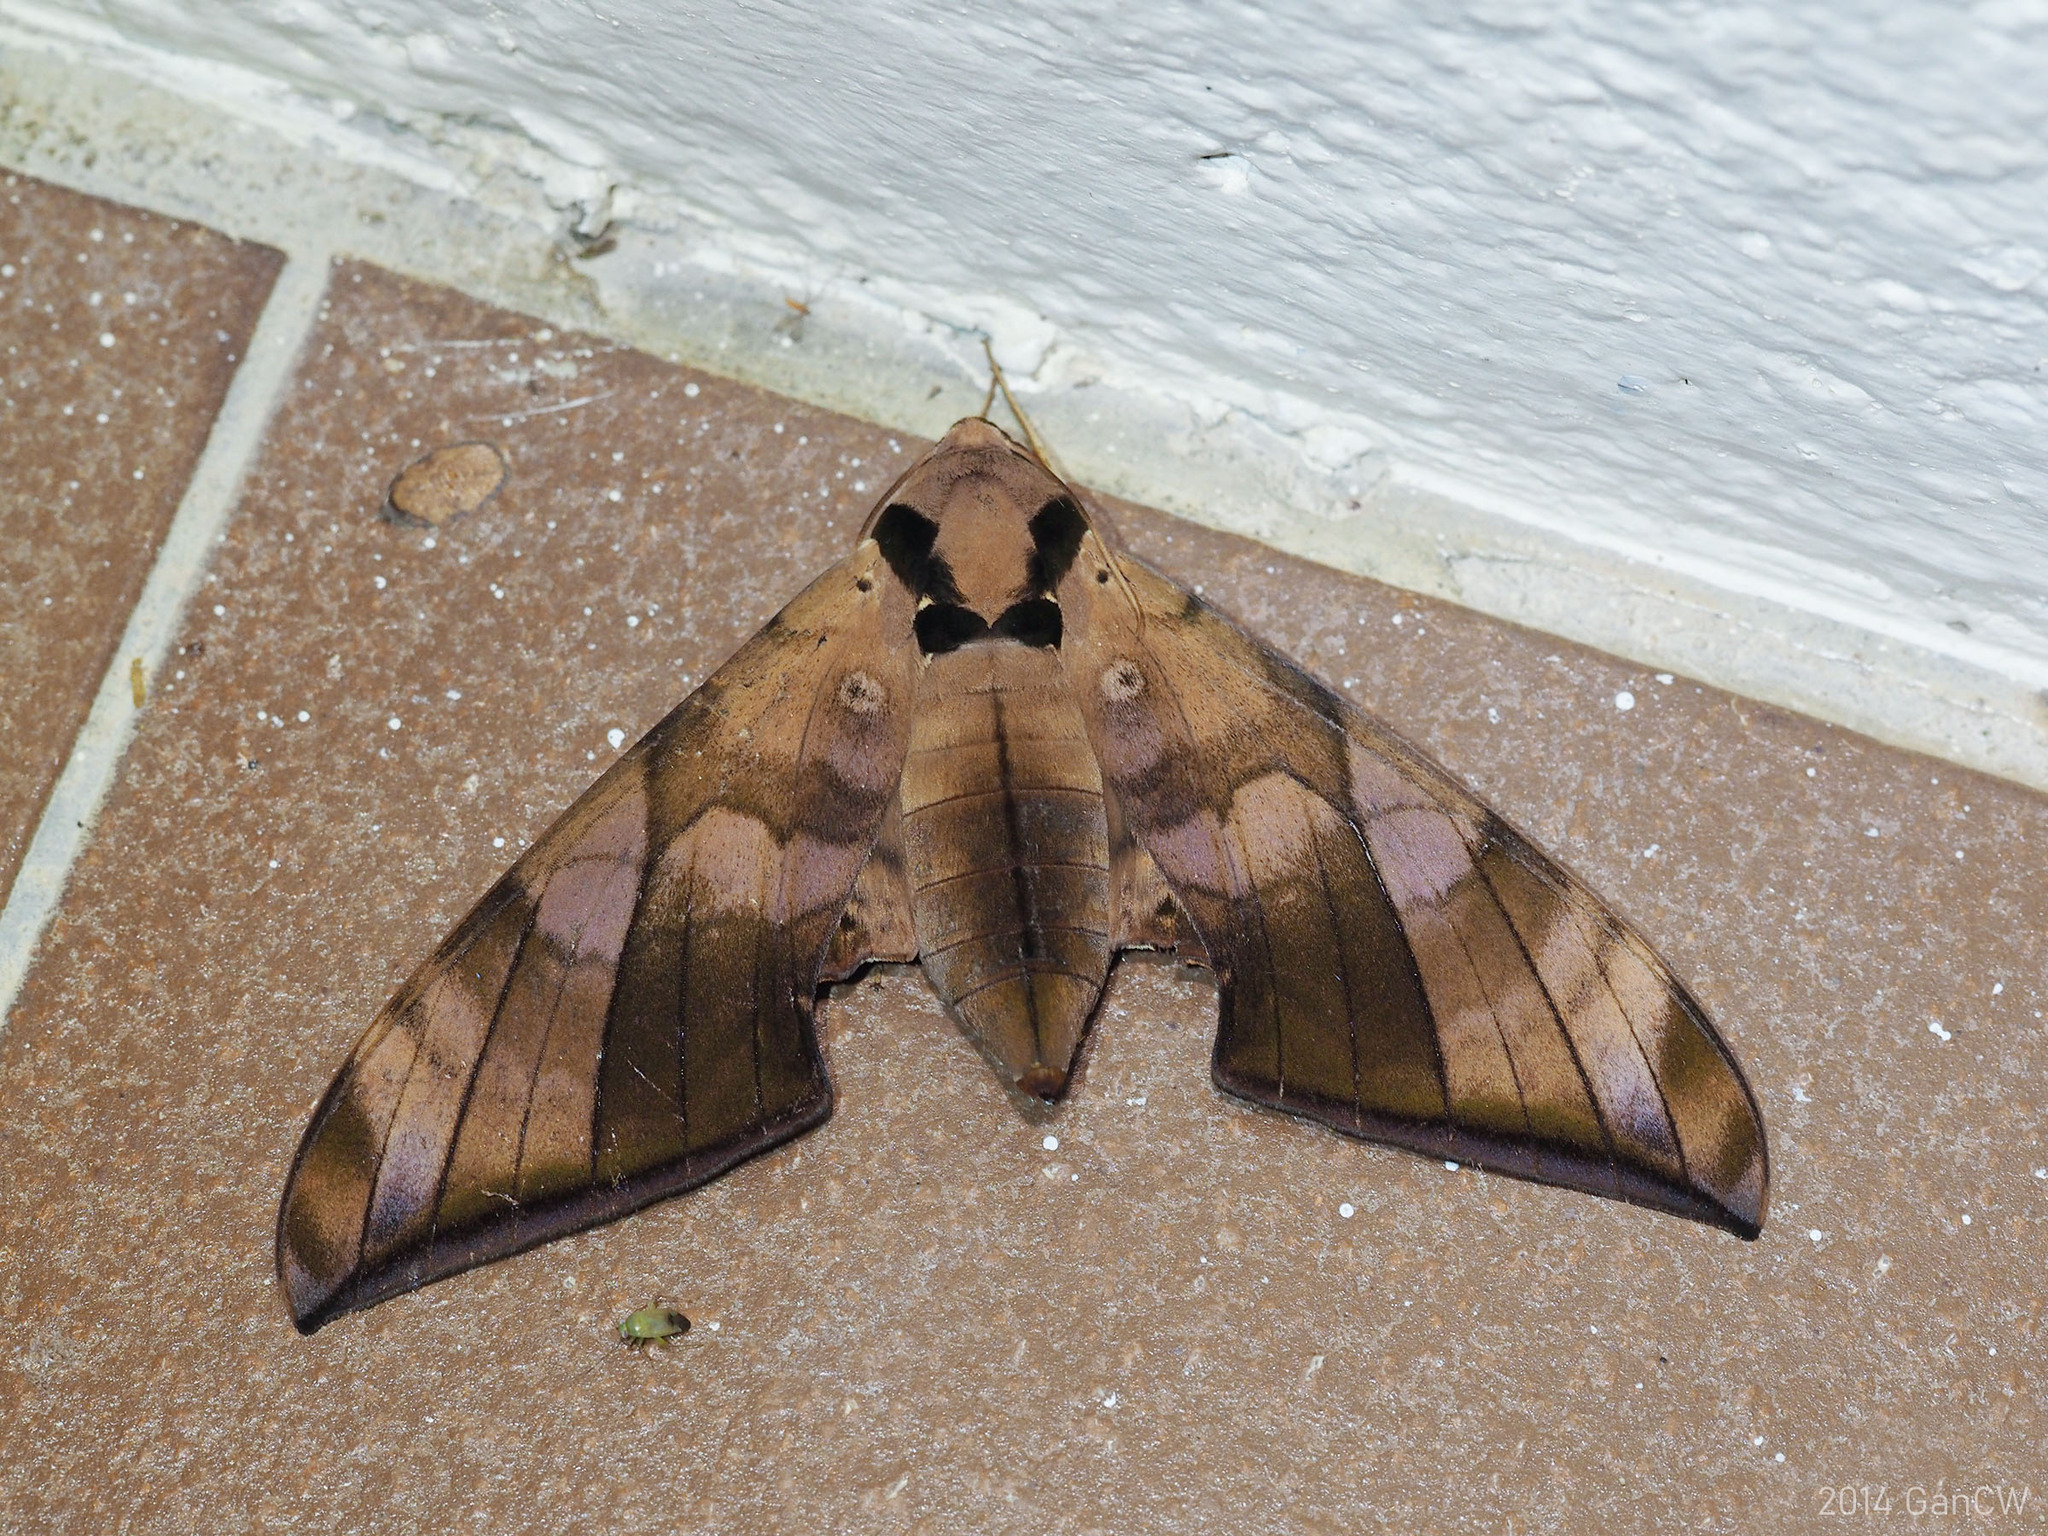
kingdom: Animalia
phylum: Arthropoda
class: Insecta
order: Lepidoptera
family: Sphingidae
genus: Ambulyx
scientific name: Ambulyx tattina
